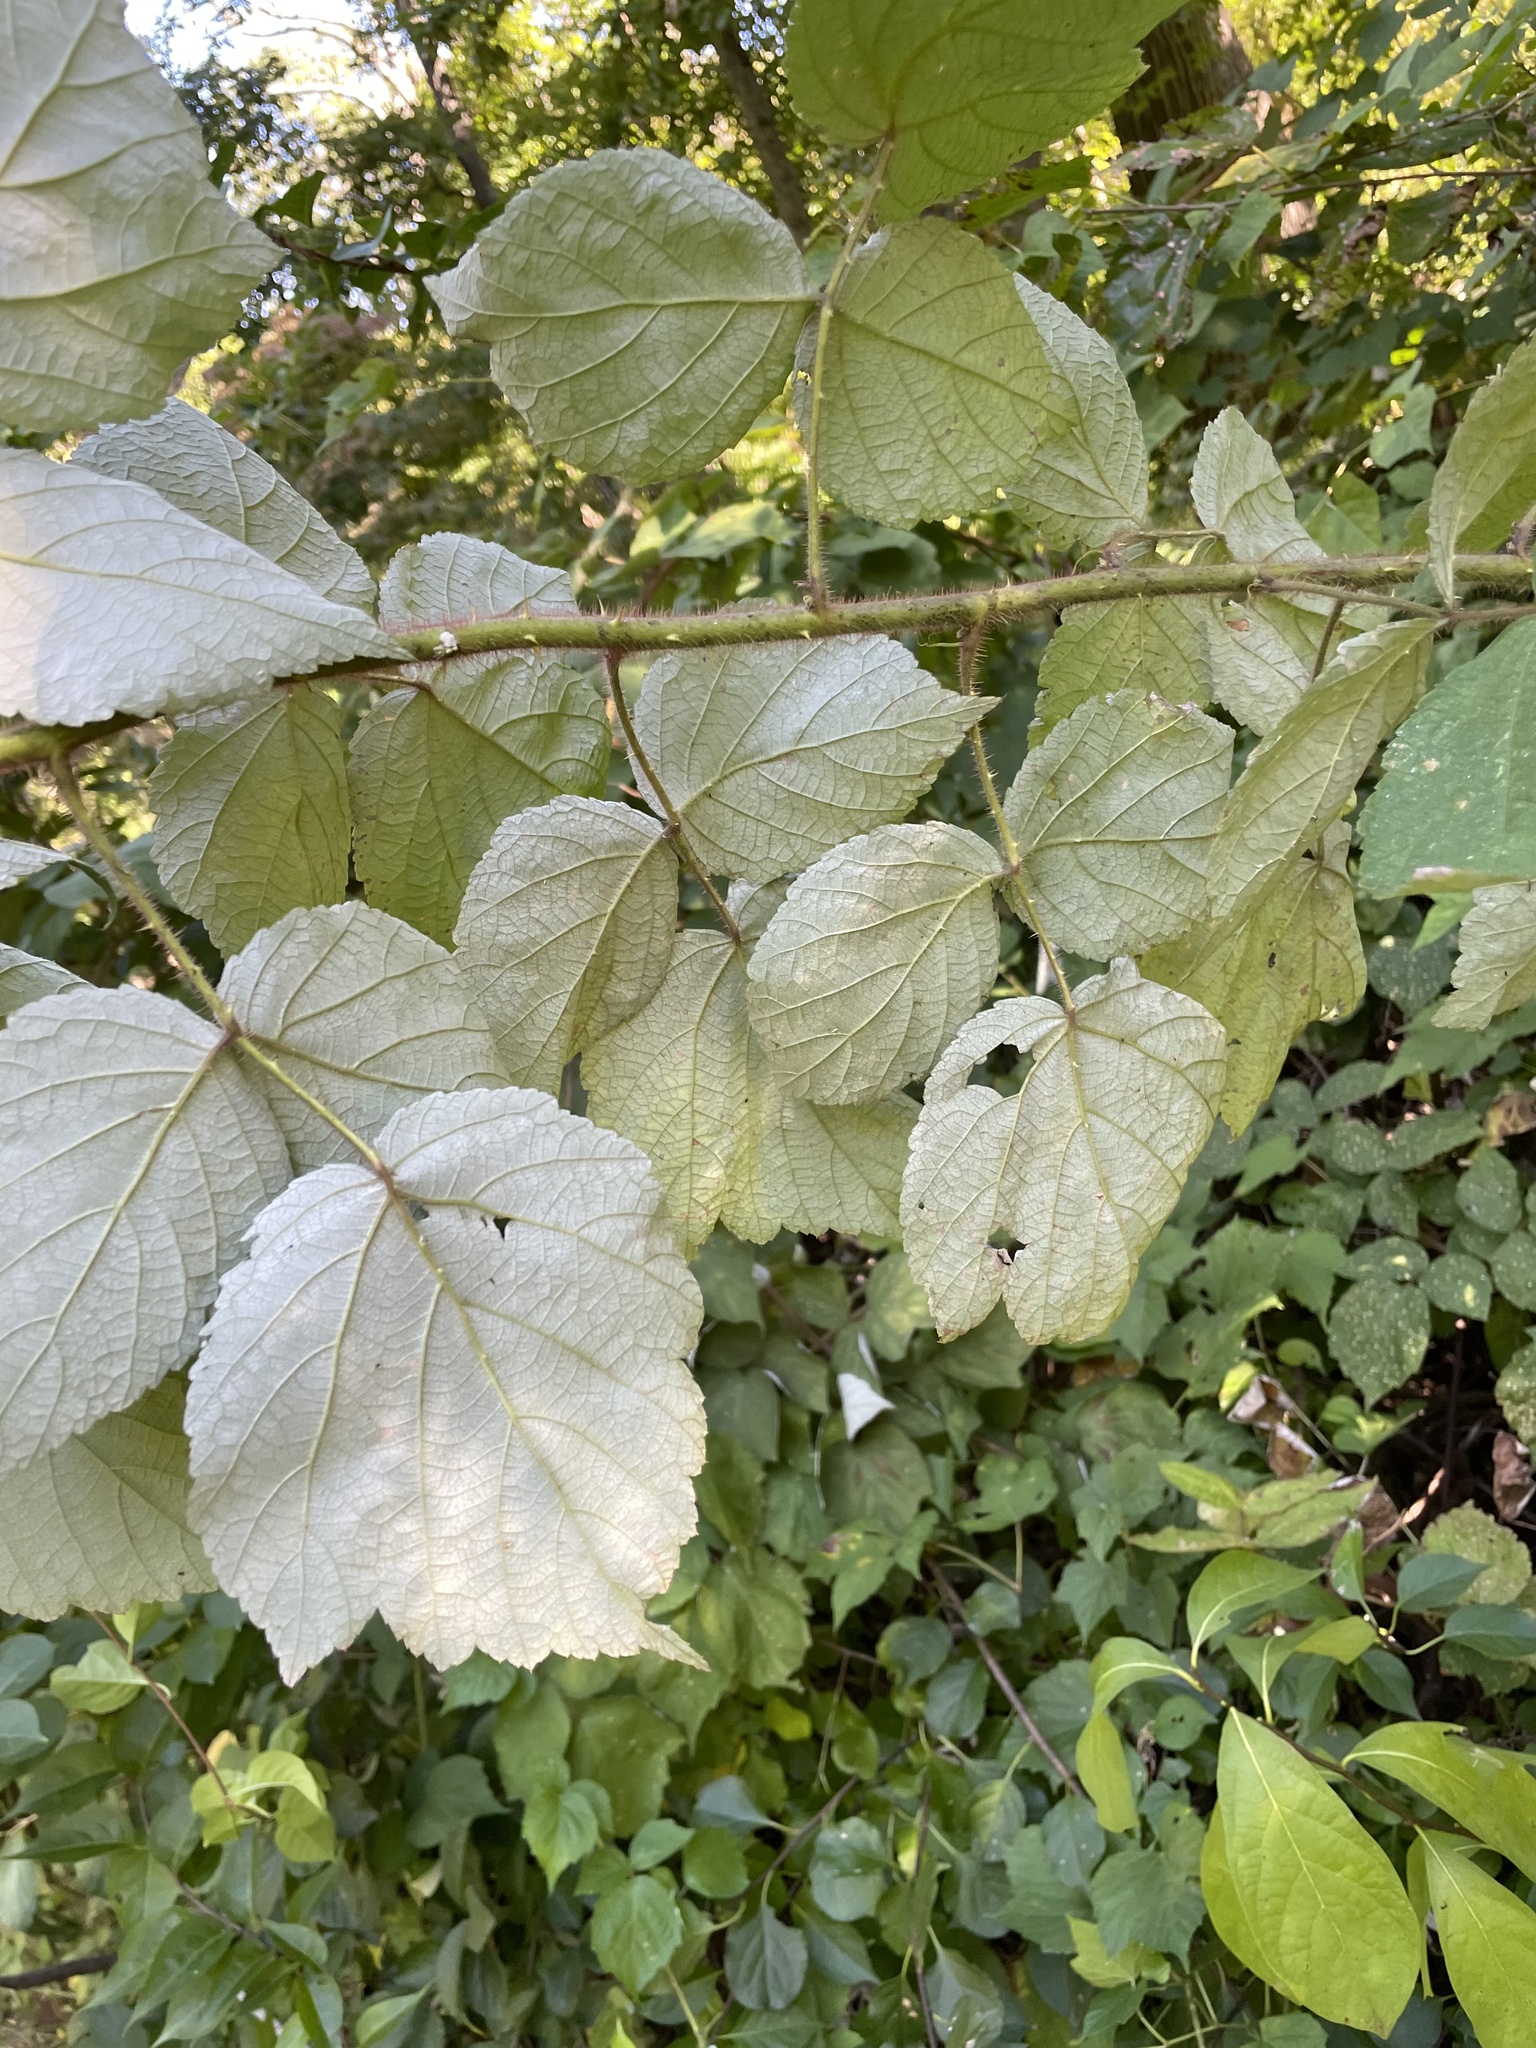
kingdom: Plantae
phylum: Tracheophyta
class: Magnoliopsida
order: Rosales
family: Rosaceae
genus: Rubus
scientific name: Rubus phoenicolasius
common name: Japanese wineberry
